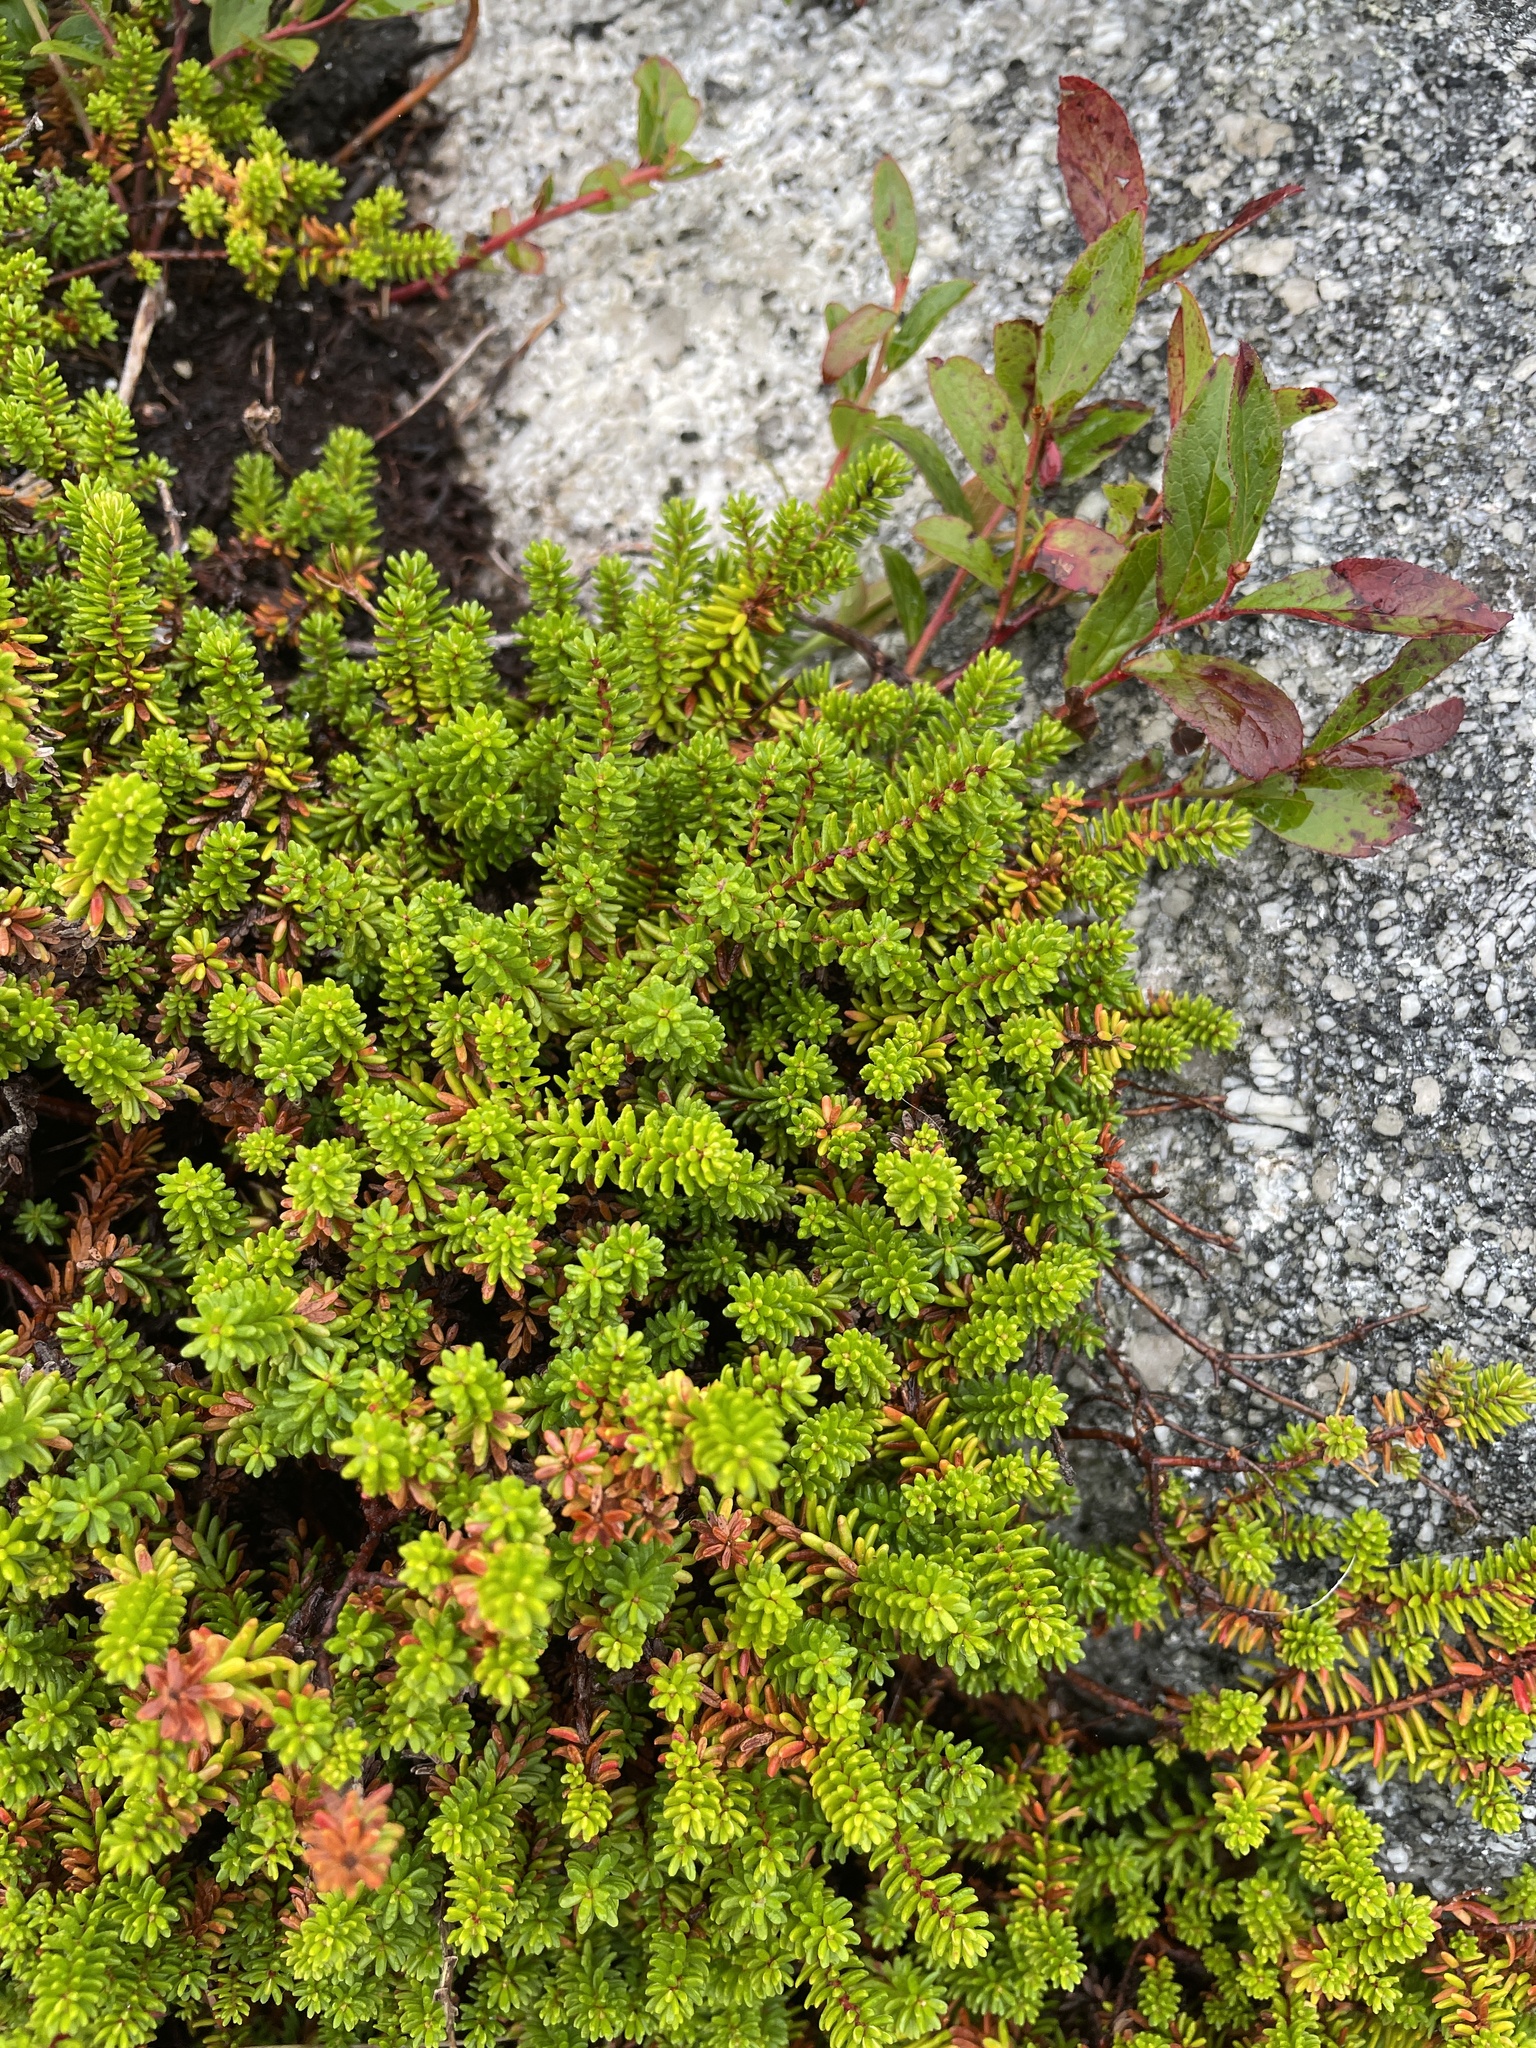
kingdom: Plantae
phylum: Tracheophyta
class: Magnoliopsida
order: Ericales
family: Ericaceae
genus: Empetrum
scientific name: Empetrum nigrum
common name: Black crowberry
